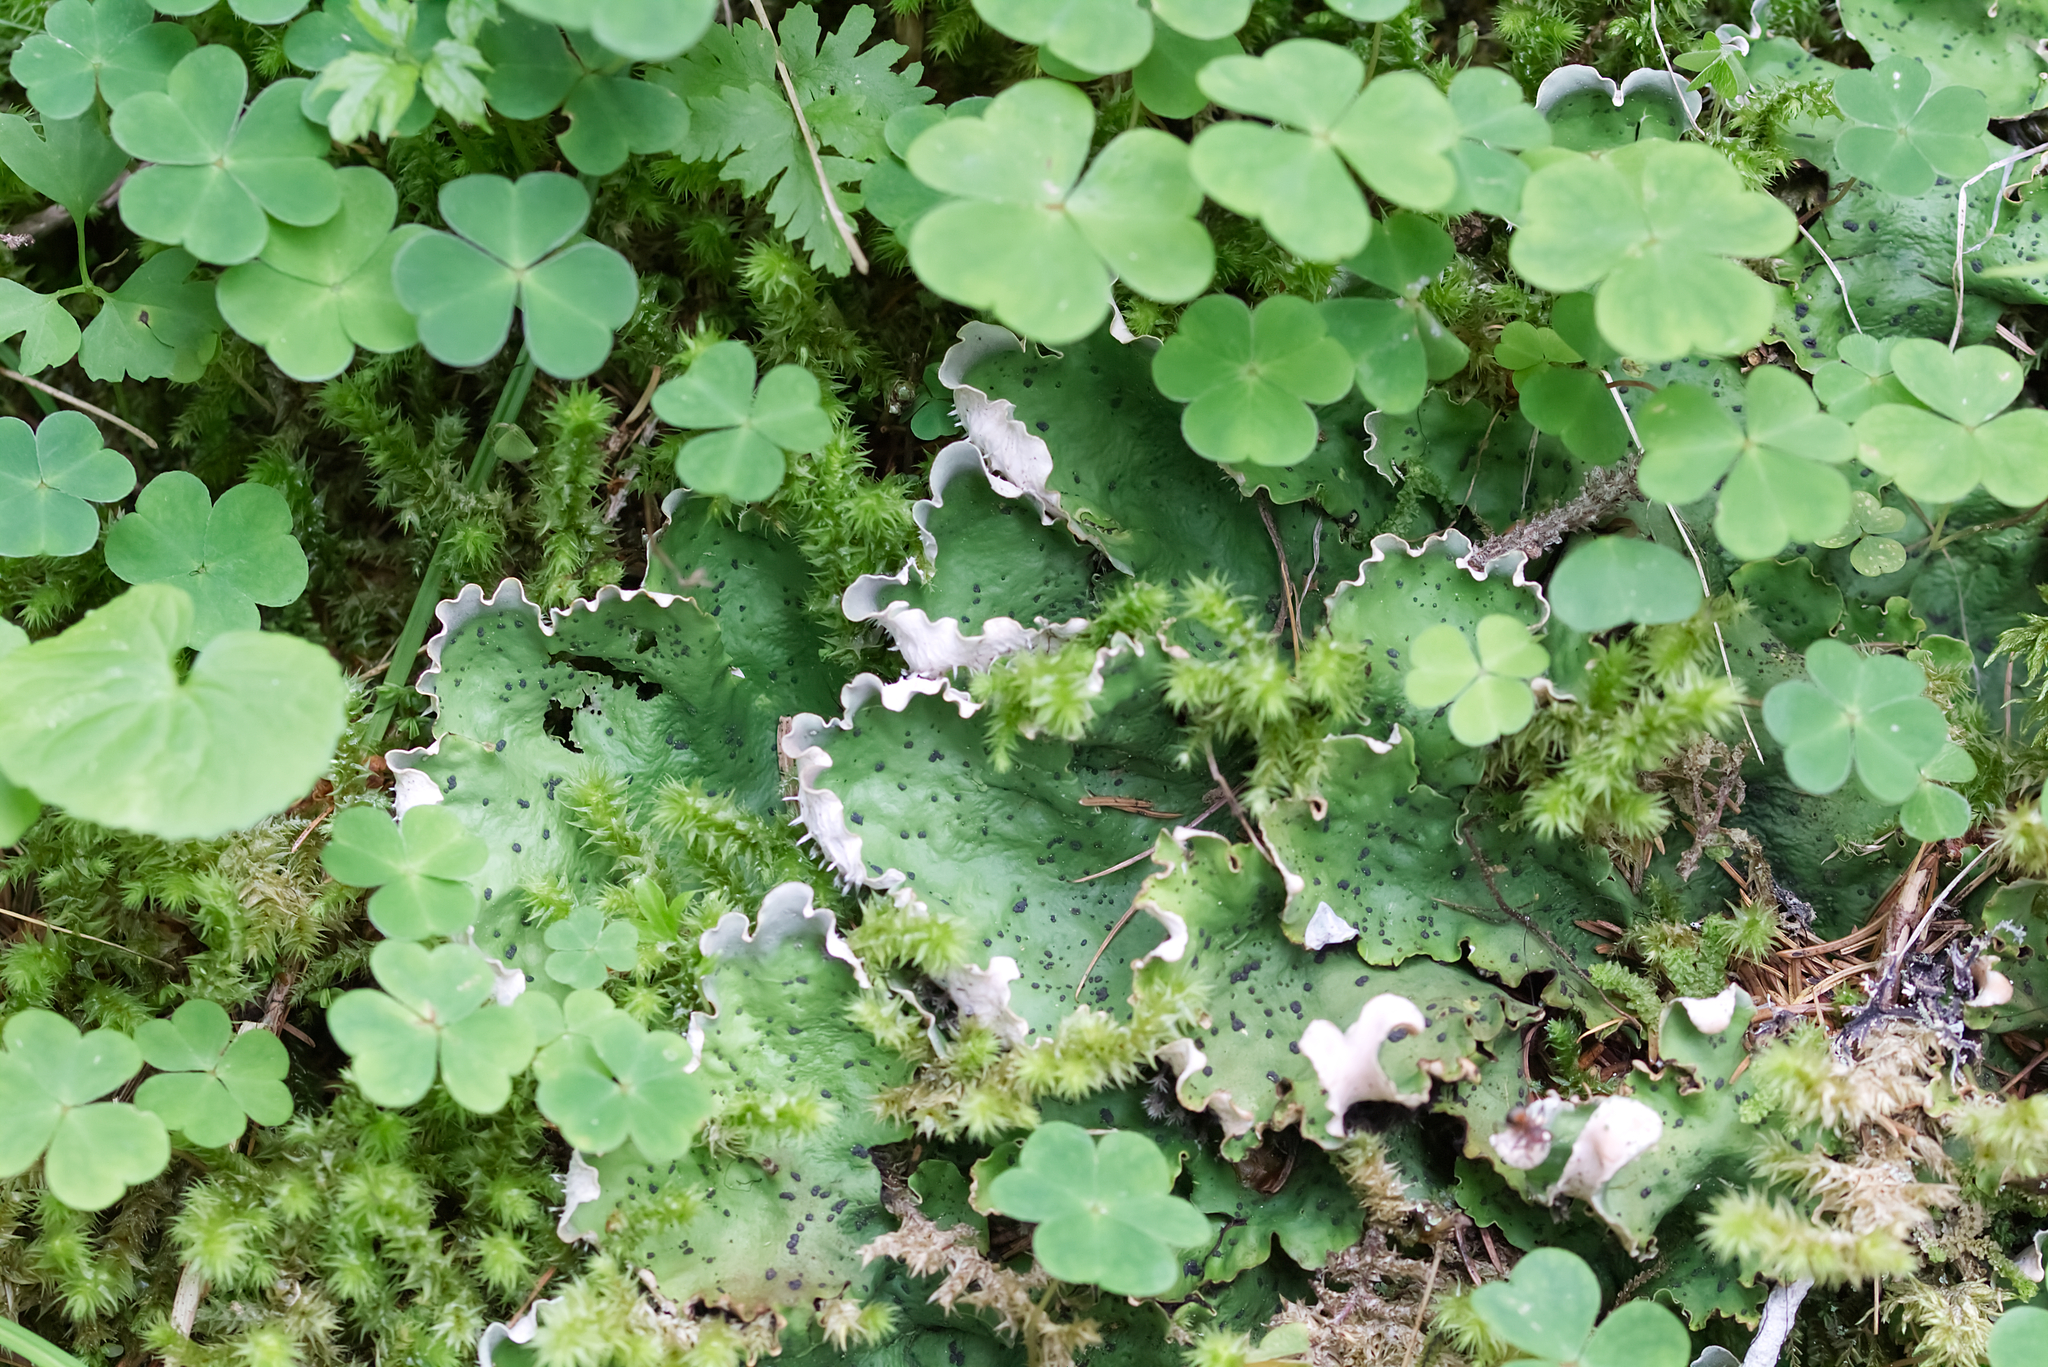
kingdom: Fungi
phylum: Ascomycota
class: Lecanoromycetes
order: Peltigerales
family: Peltigeraceae
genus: Peltigera
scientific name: Peltigera aphthosa
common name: Common freckle pelt lichen
